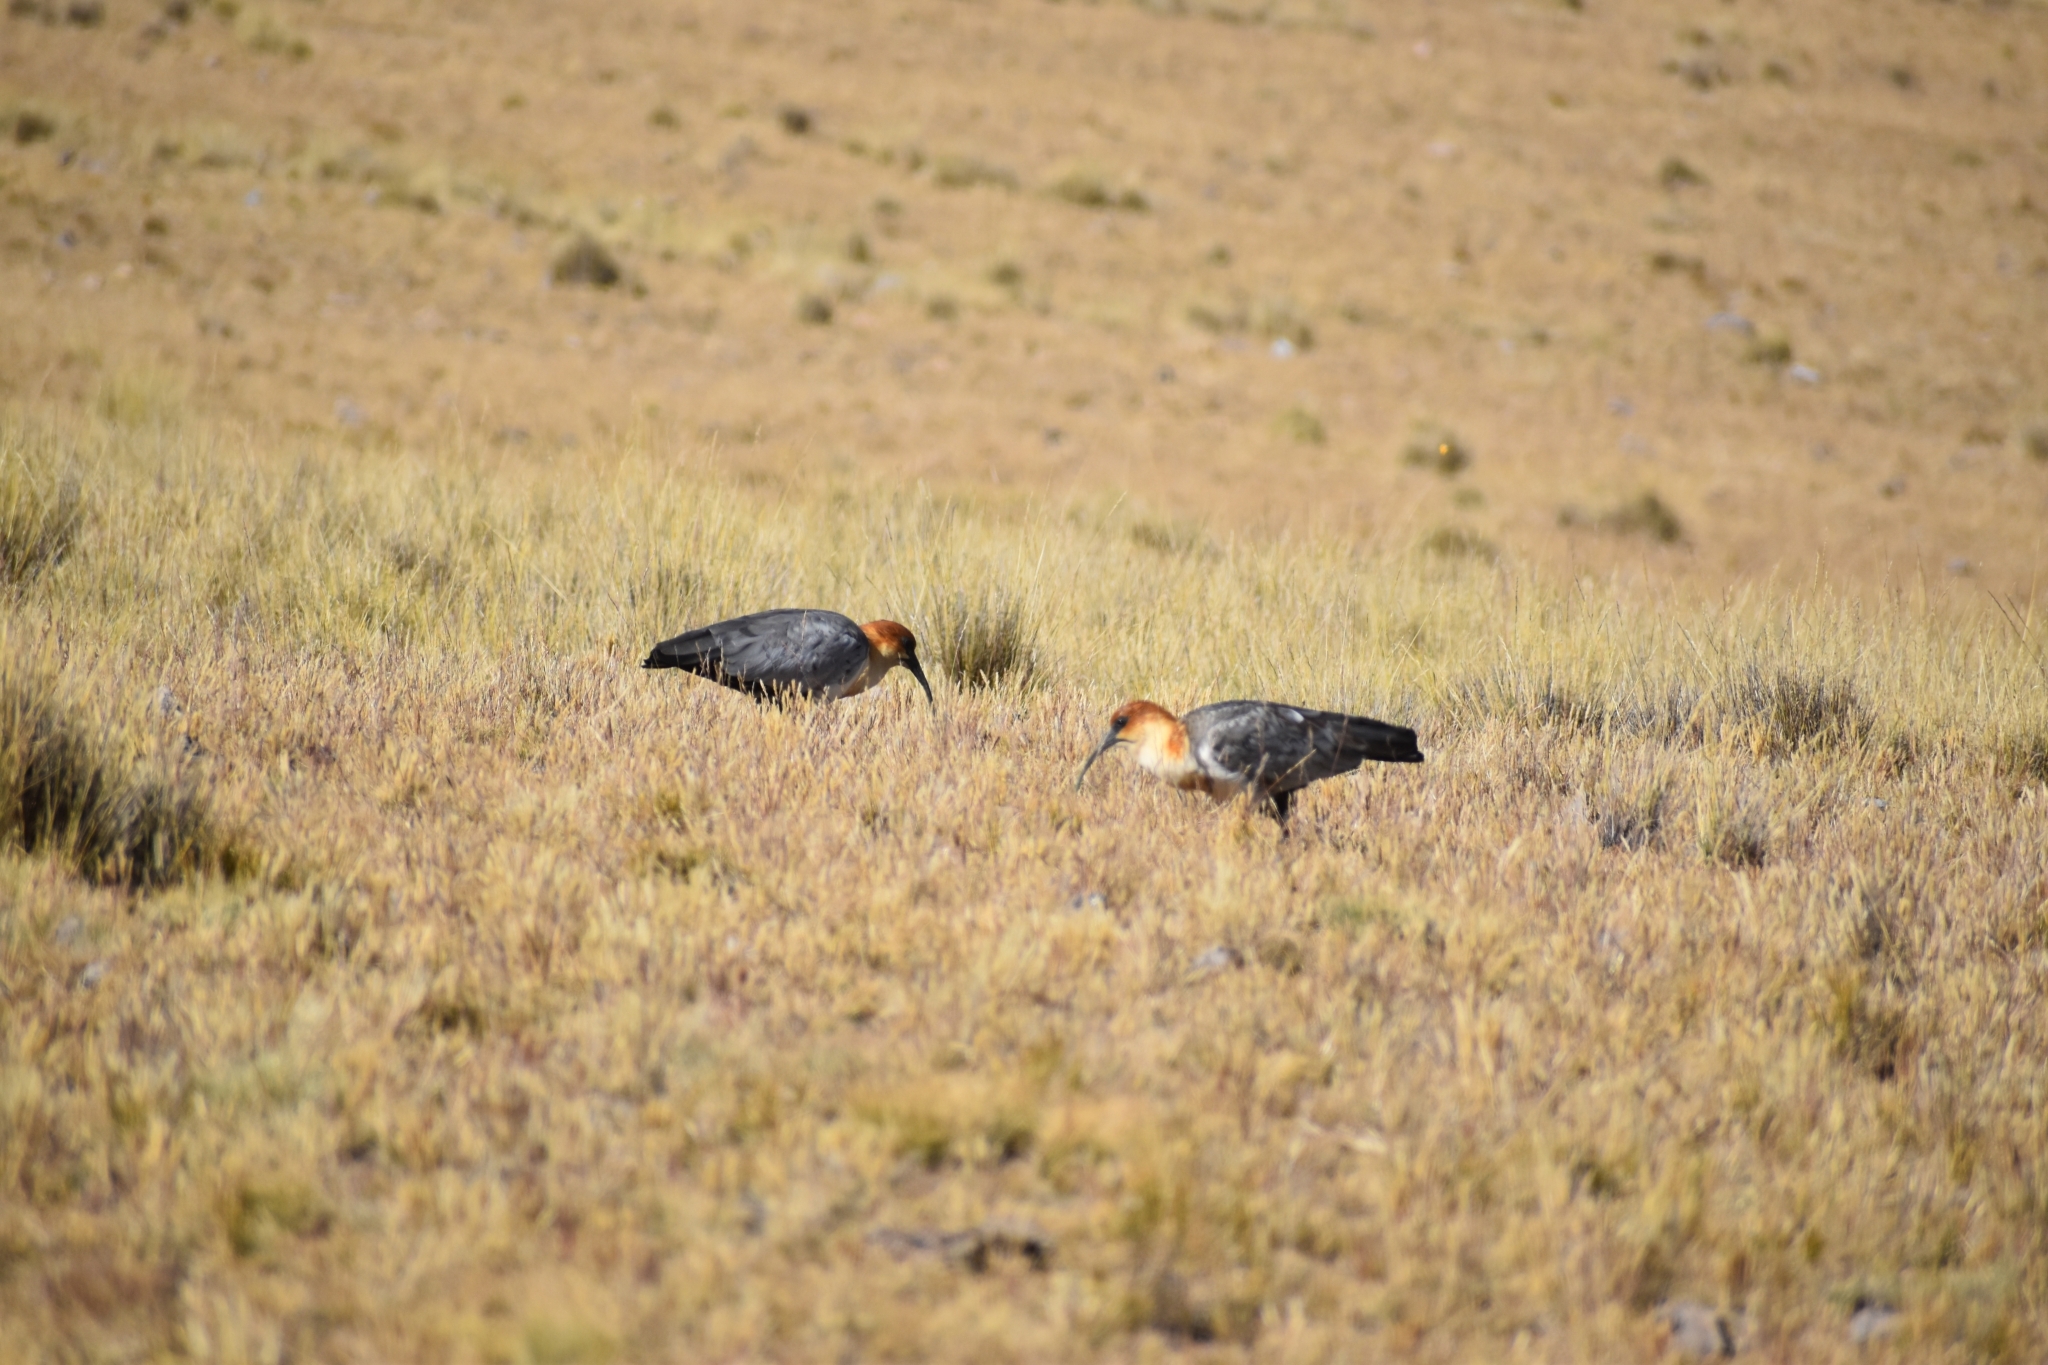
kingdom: Animalia
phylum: Chordata
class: Aves
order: Pelecaniformes
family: Threskiornithidae
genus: Theristicus
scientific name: Theristicus melanopis
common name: Black-faced ibis
